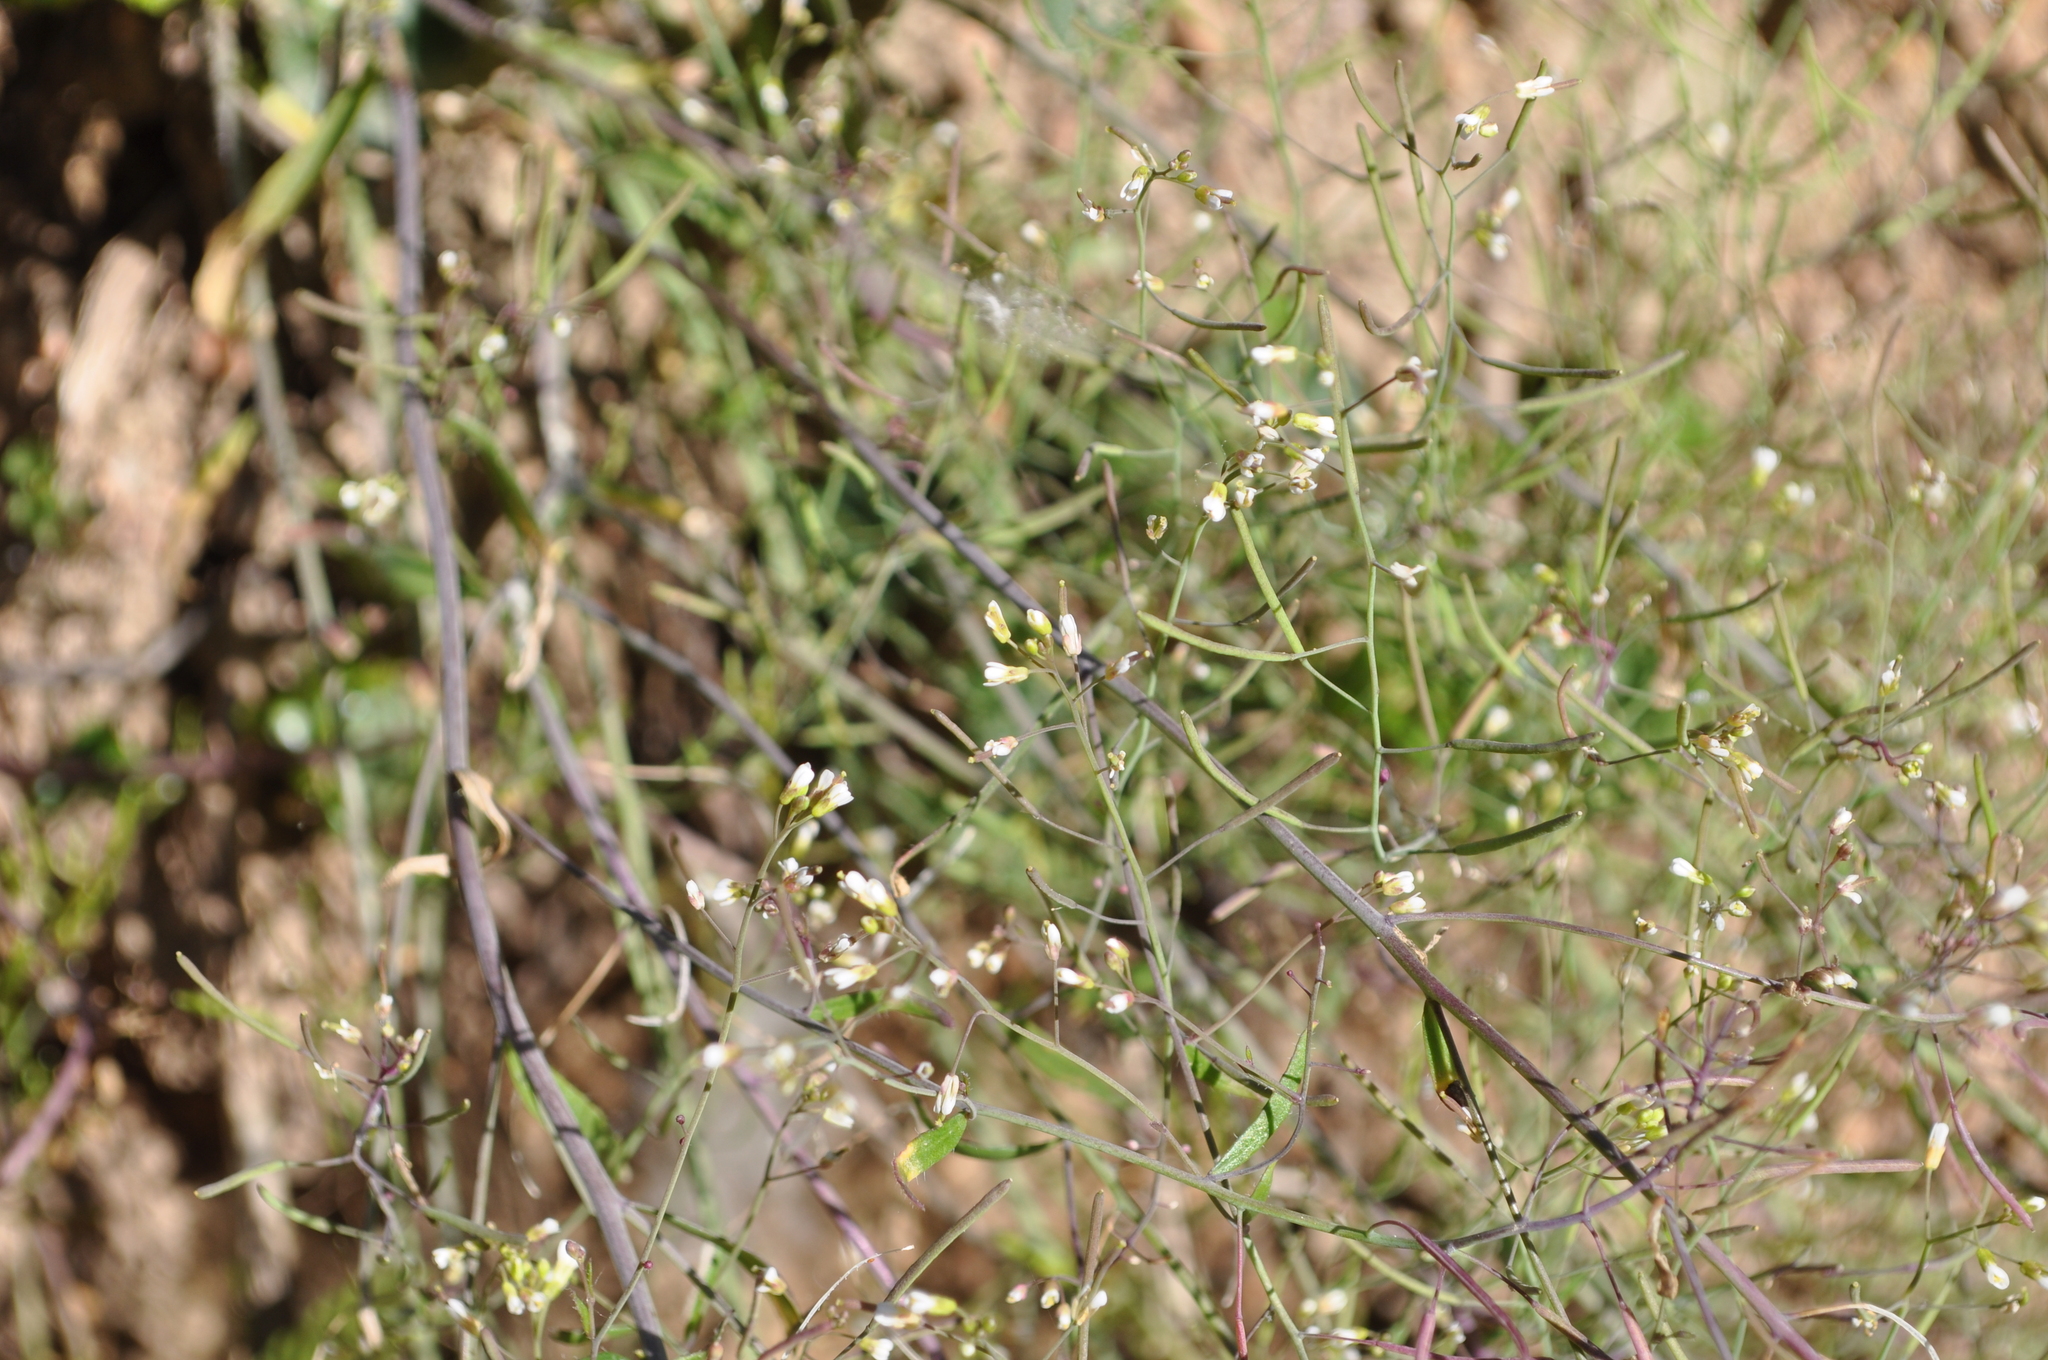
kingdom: Plantae
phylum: Tracheophyta
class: Magnoliopsida
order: Brassicales
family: Brassicaceae
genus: Arabidopsis
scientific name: Arabidopsis thaliana
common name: Thale cress
